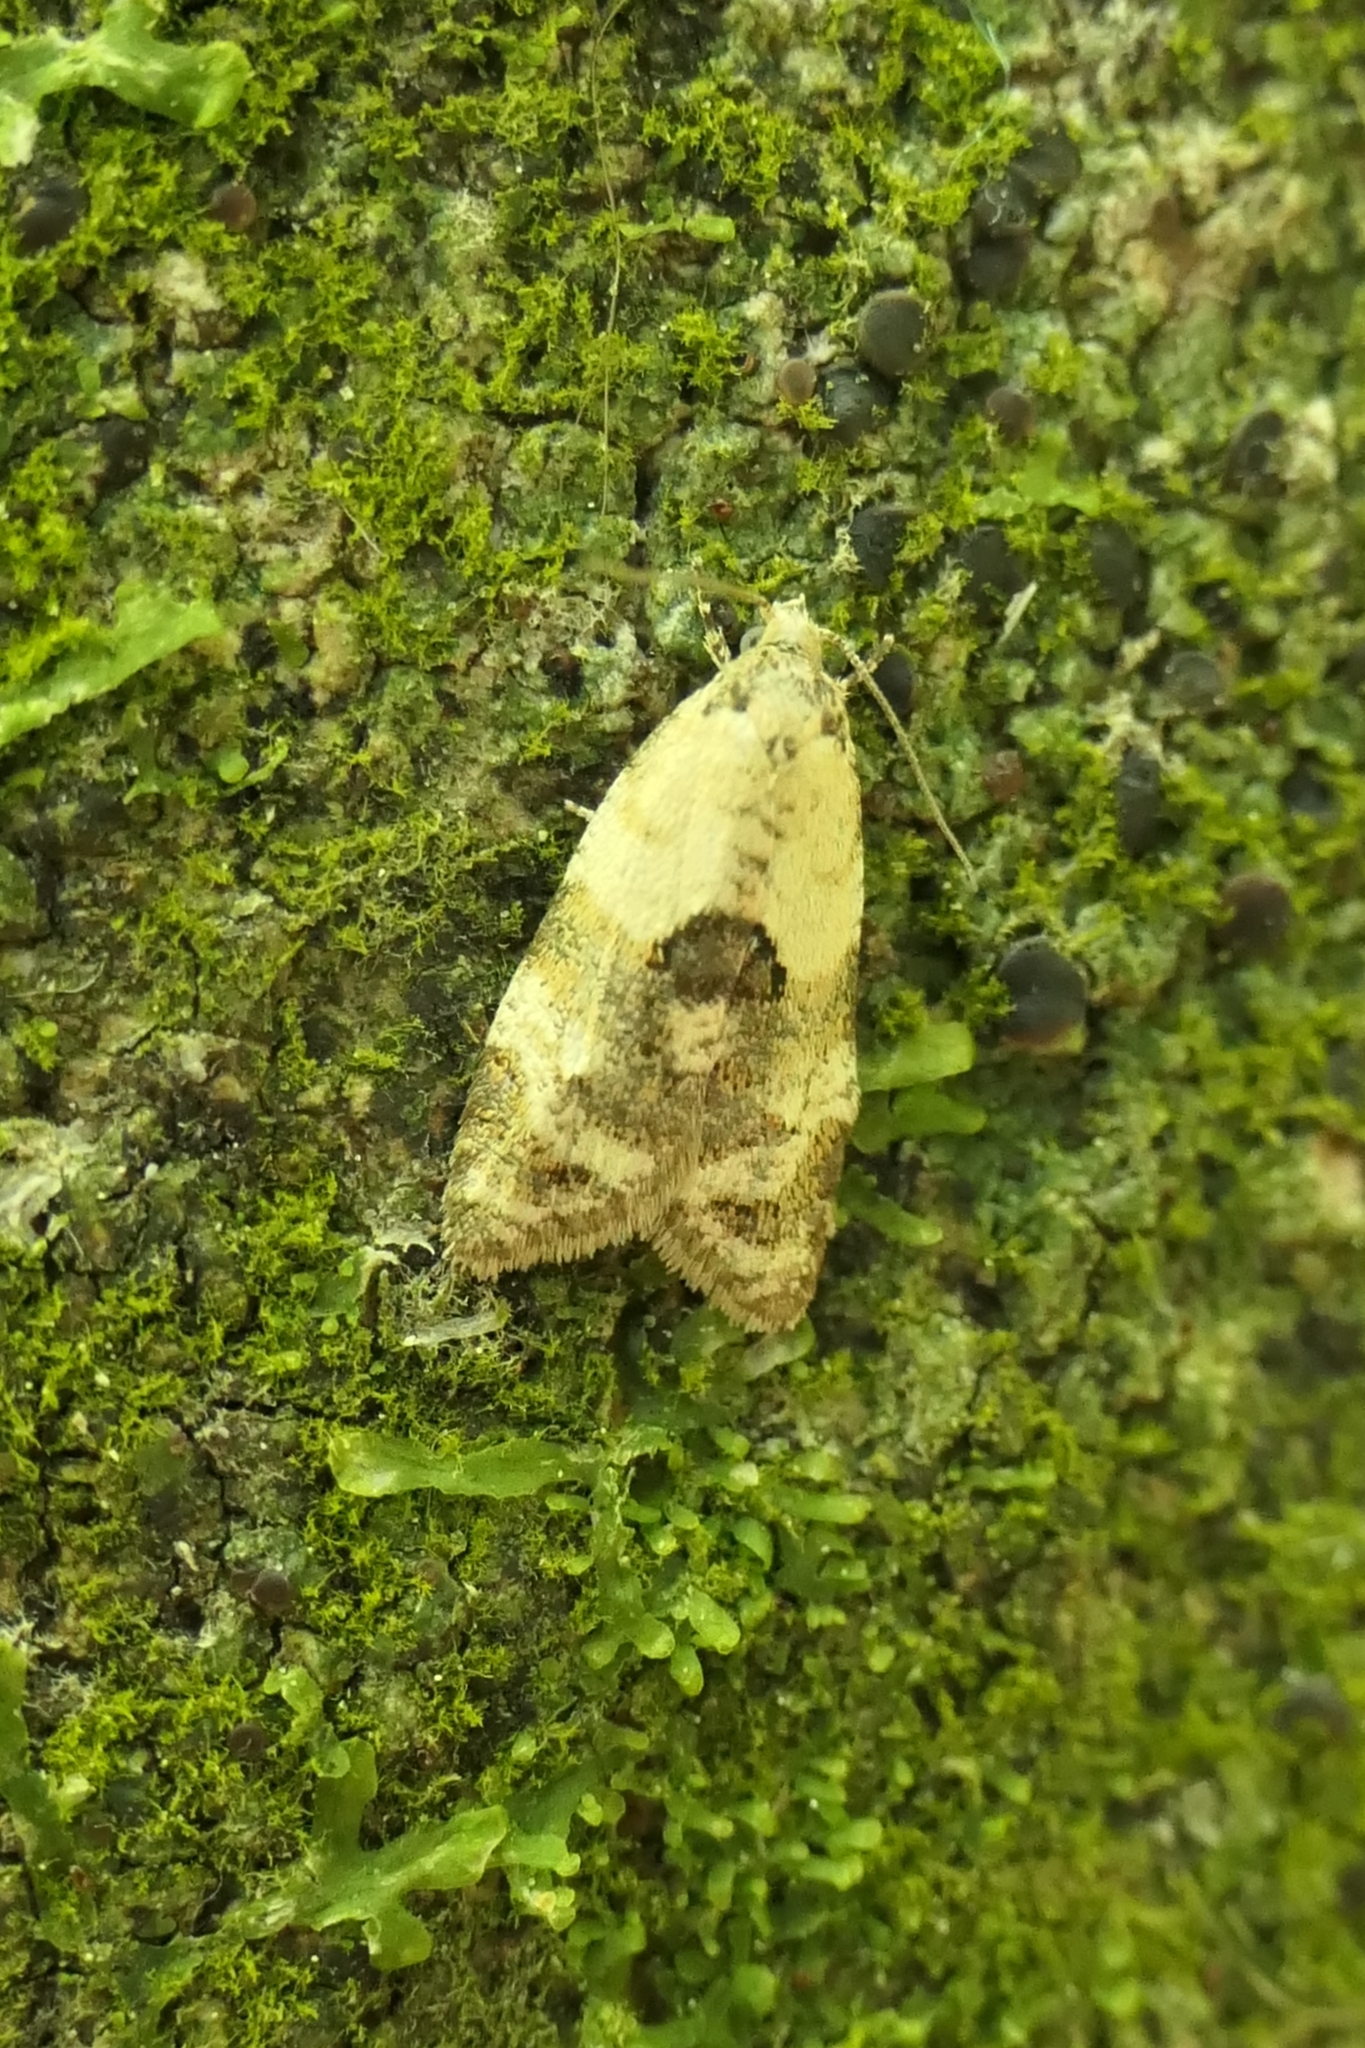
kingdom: Animalia
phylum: Arthropoda
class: Insecta
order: Lepidoptera
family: Tortricidae
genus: Dipterina
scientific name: Dipterina imbriferana
